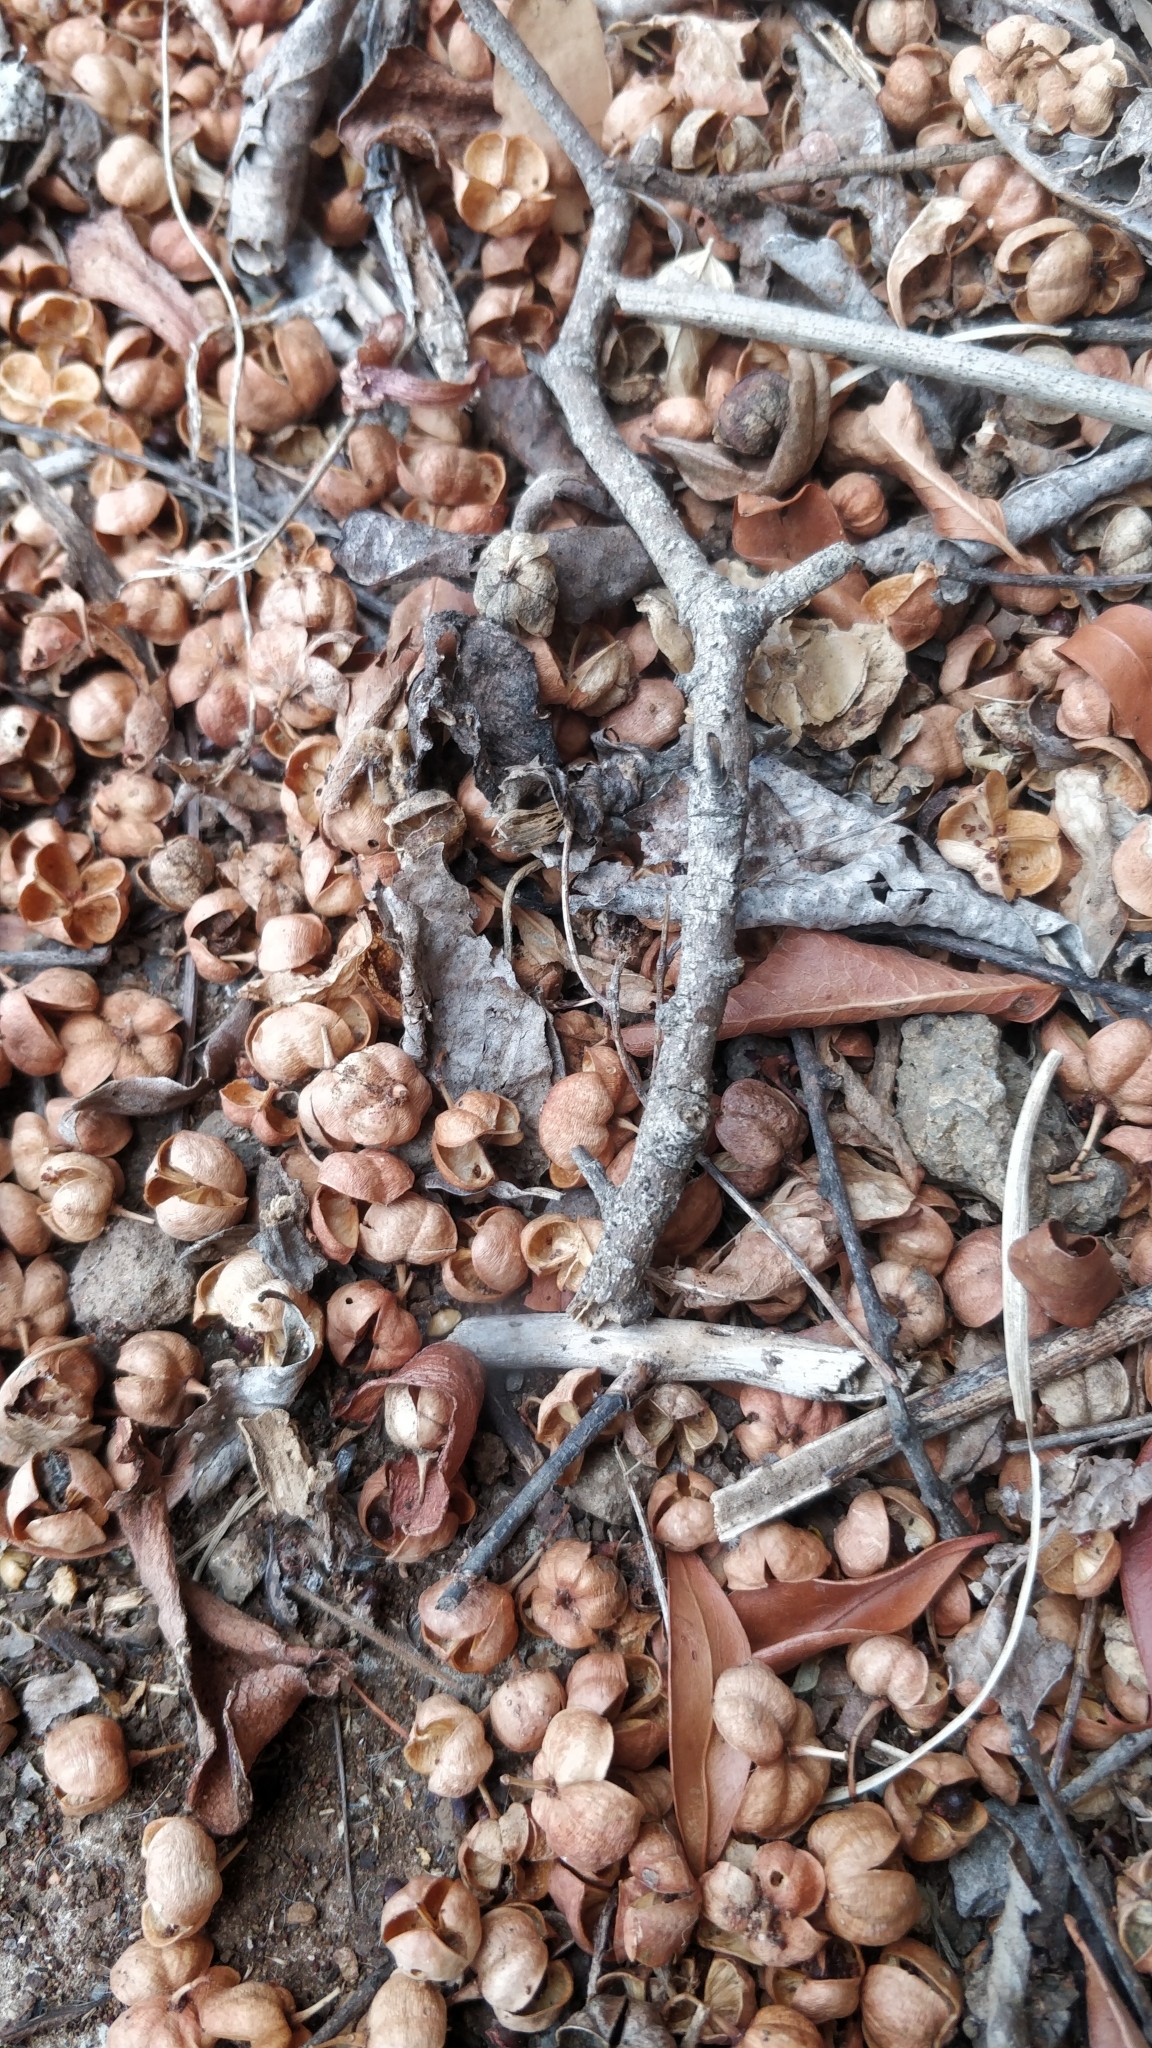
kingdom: Plantae
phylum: Tracheophyta
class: Magnoliopsida
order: Celastrales
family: Celastraceae
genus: Gymnosporia
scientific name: Gymnosporia dryandri
